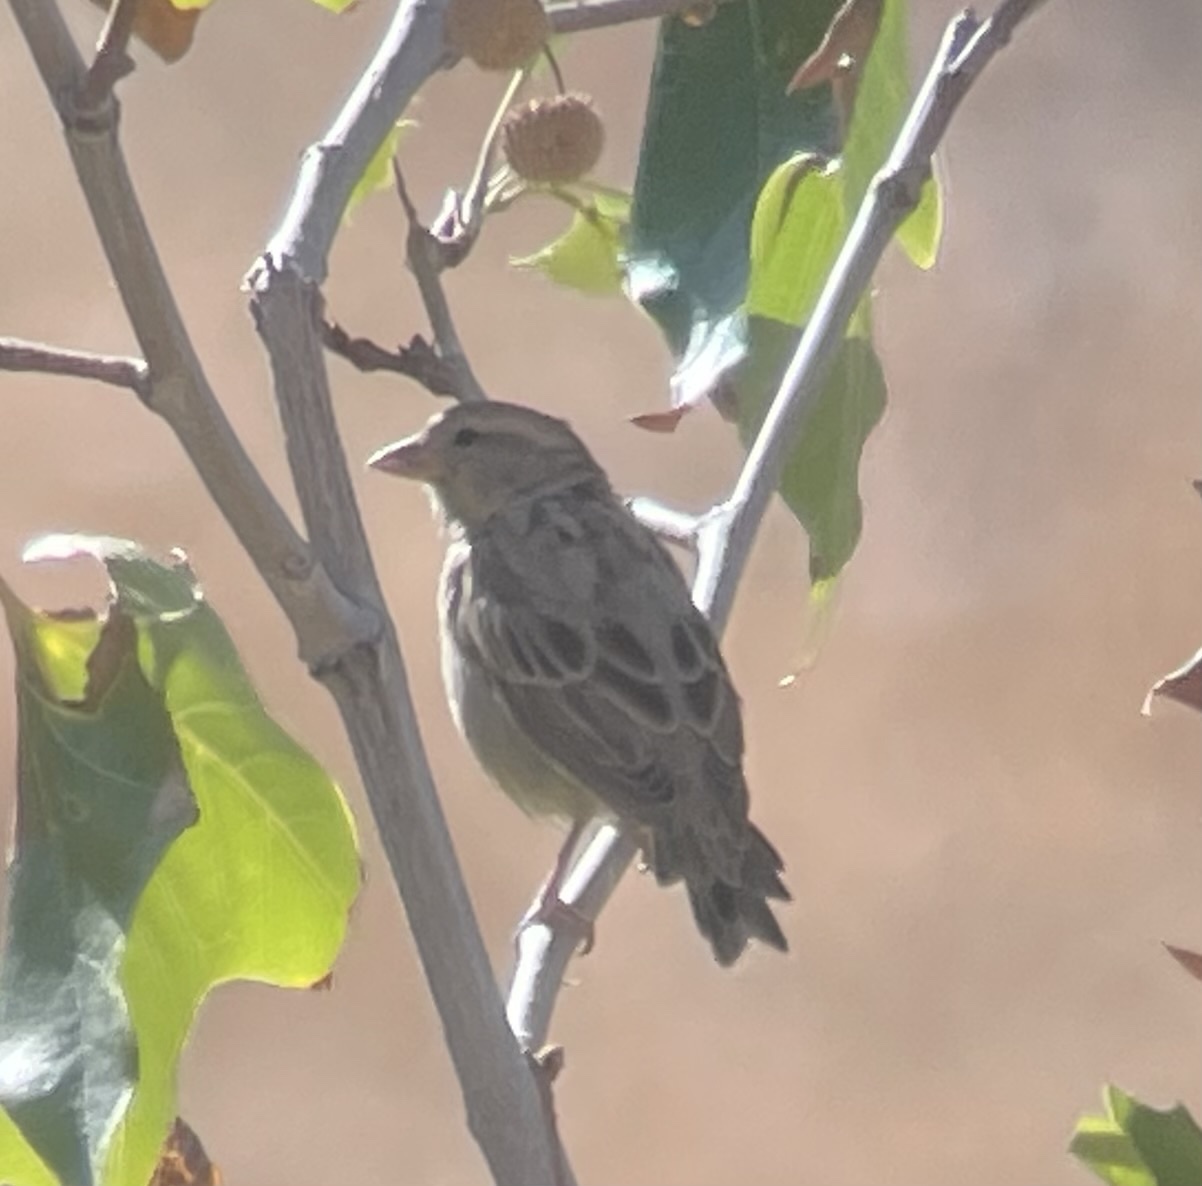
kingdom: Animalia
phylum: Chordata
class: Aves
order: Passeriformes
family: Passeridae
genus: Passer
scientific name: Passer domesticus
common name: House sparrow
